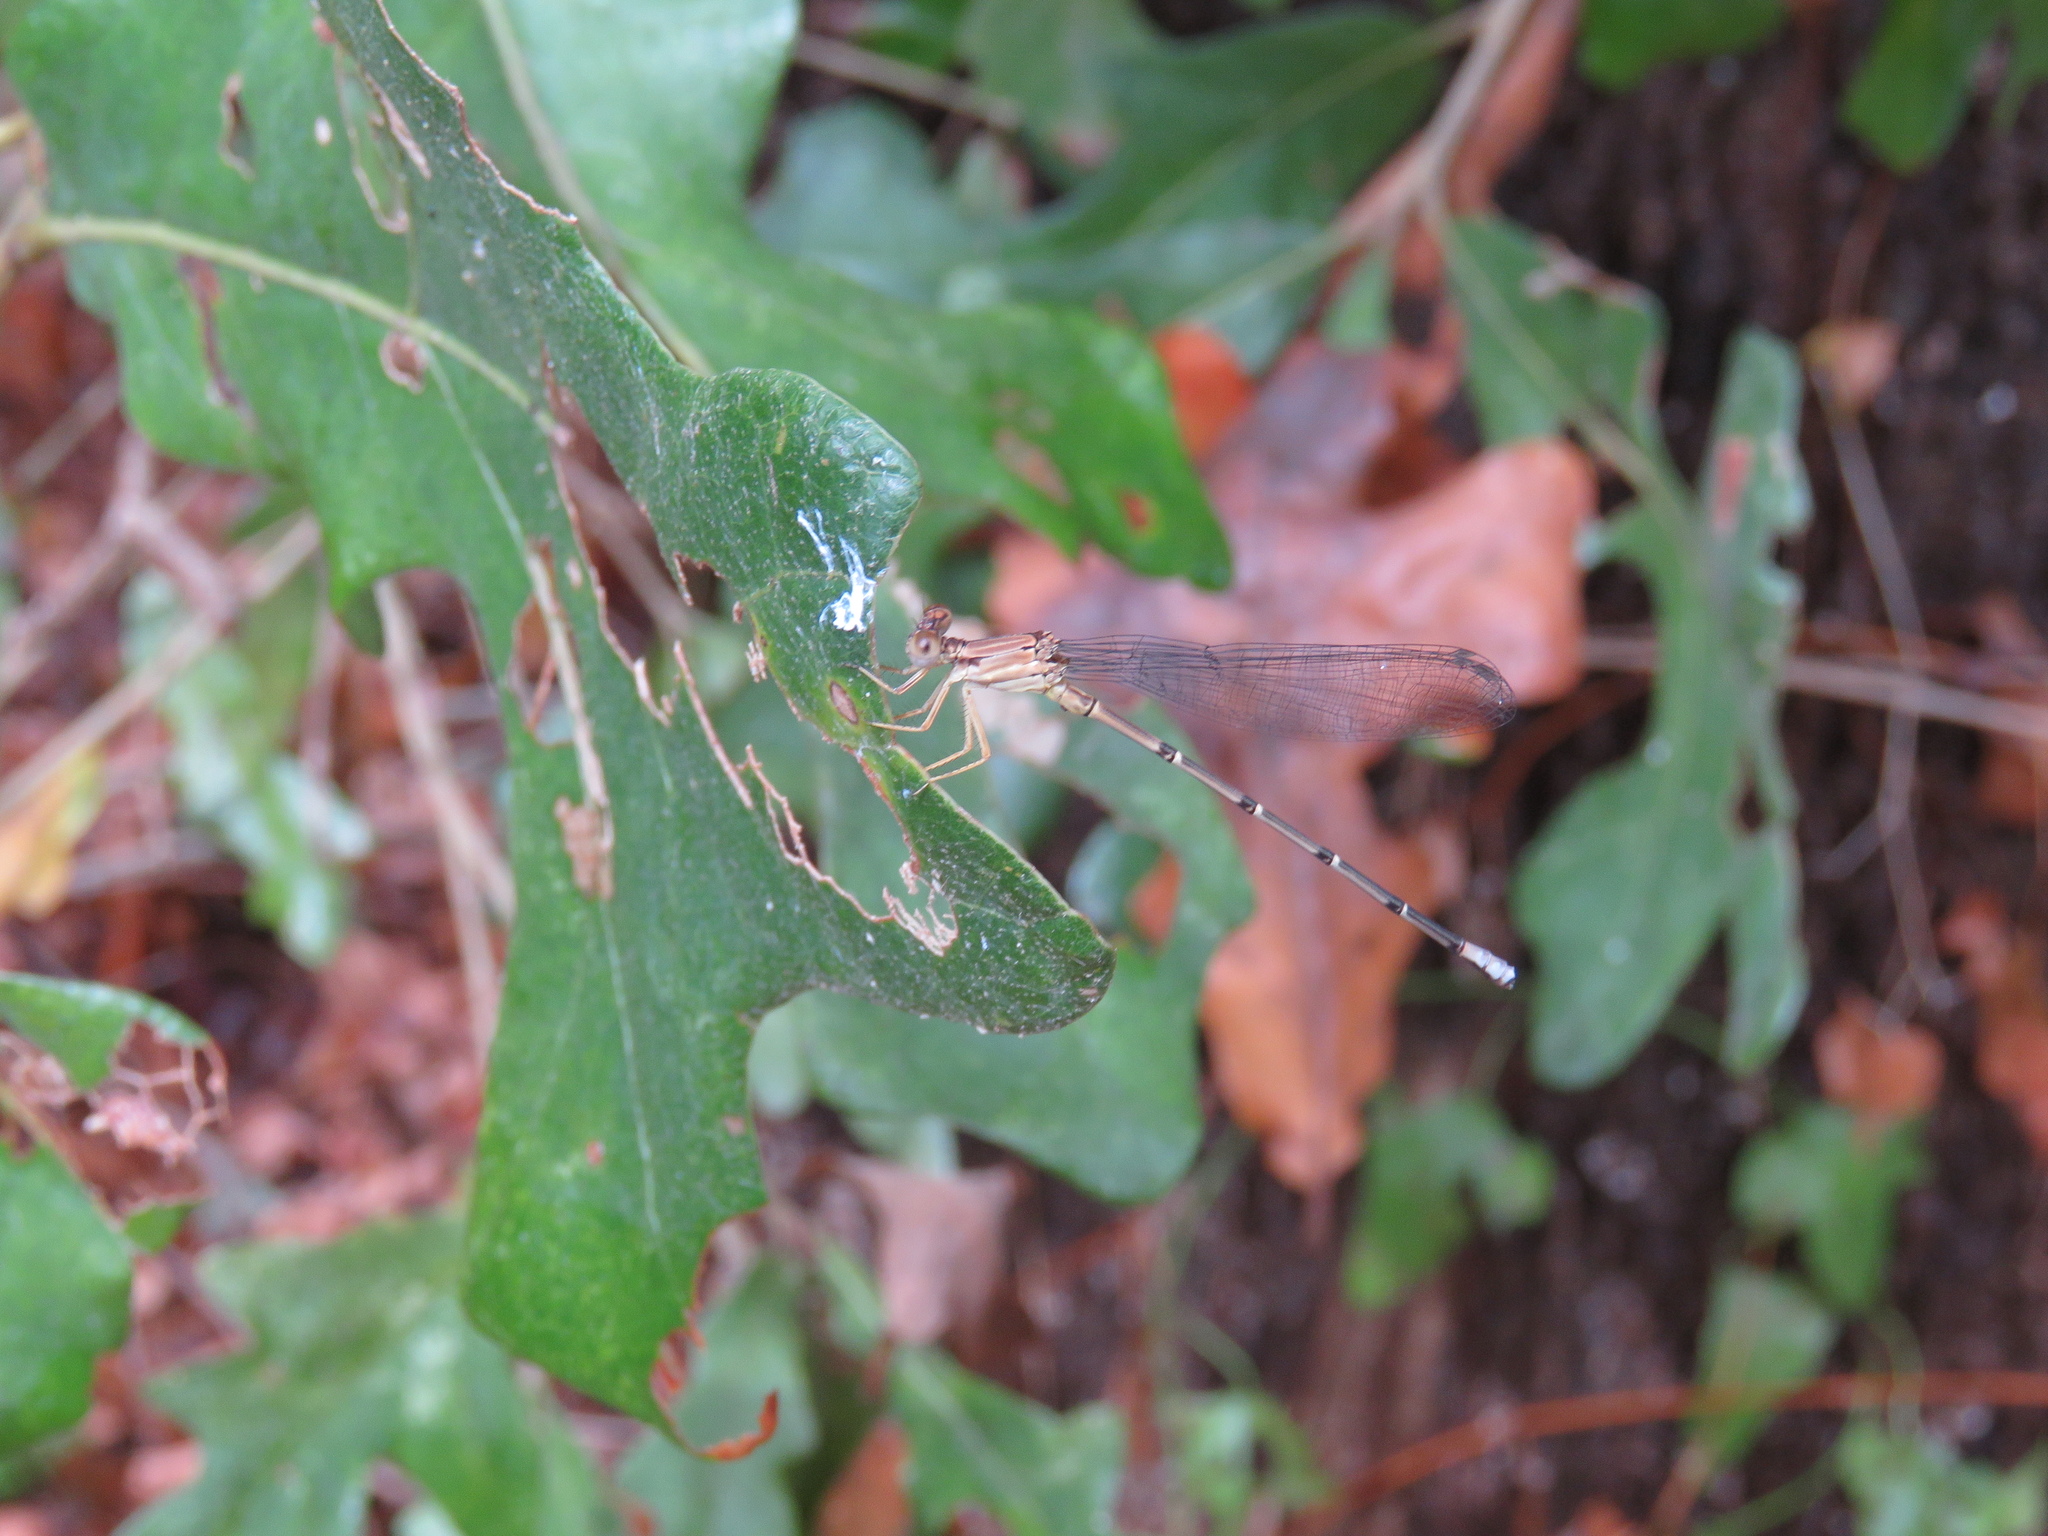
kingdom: Animalia
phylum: Arthropoda
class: Insecta
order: Odonata
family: Coenagrionidae
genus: Argia
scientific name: Argia apicalis
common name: Blue-fronted dancer
